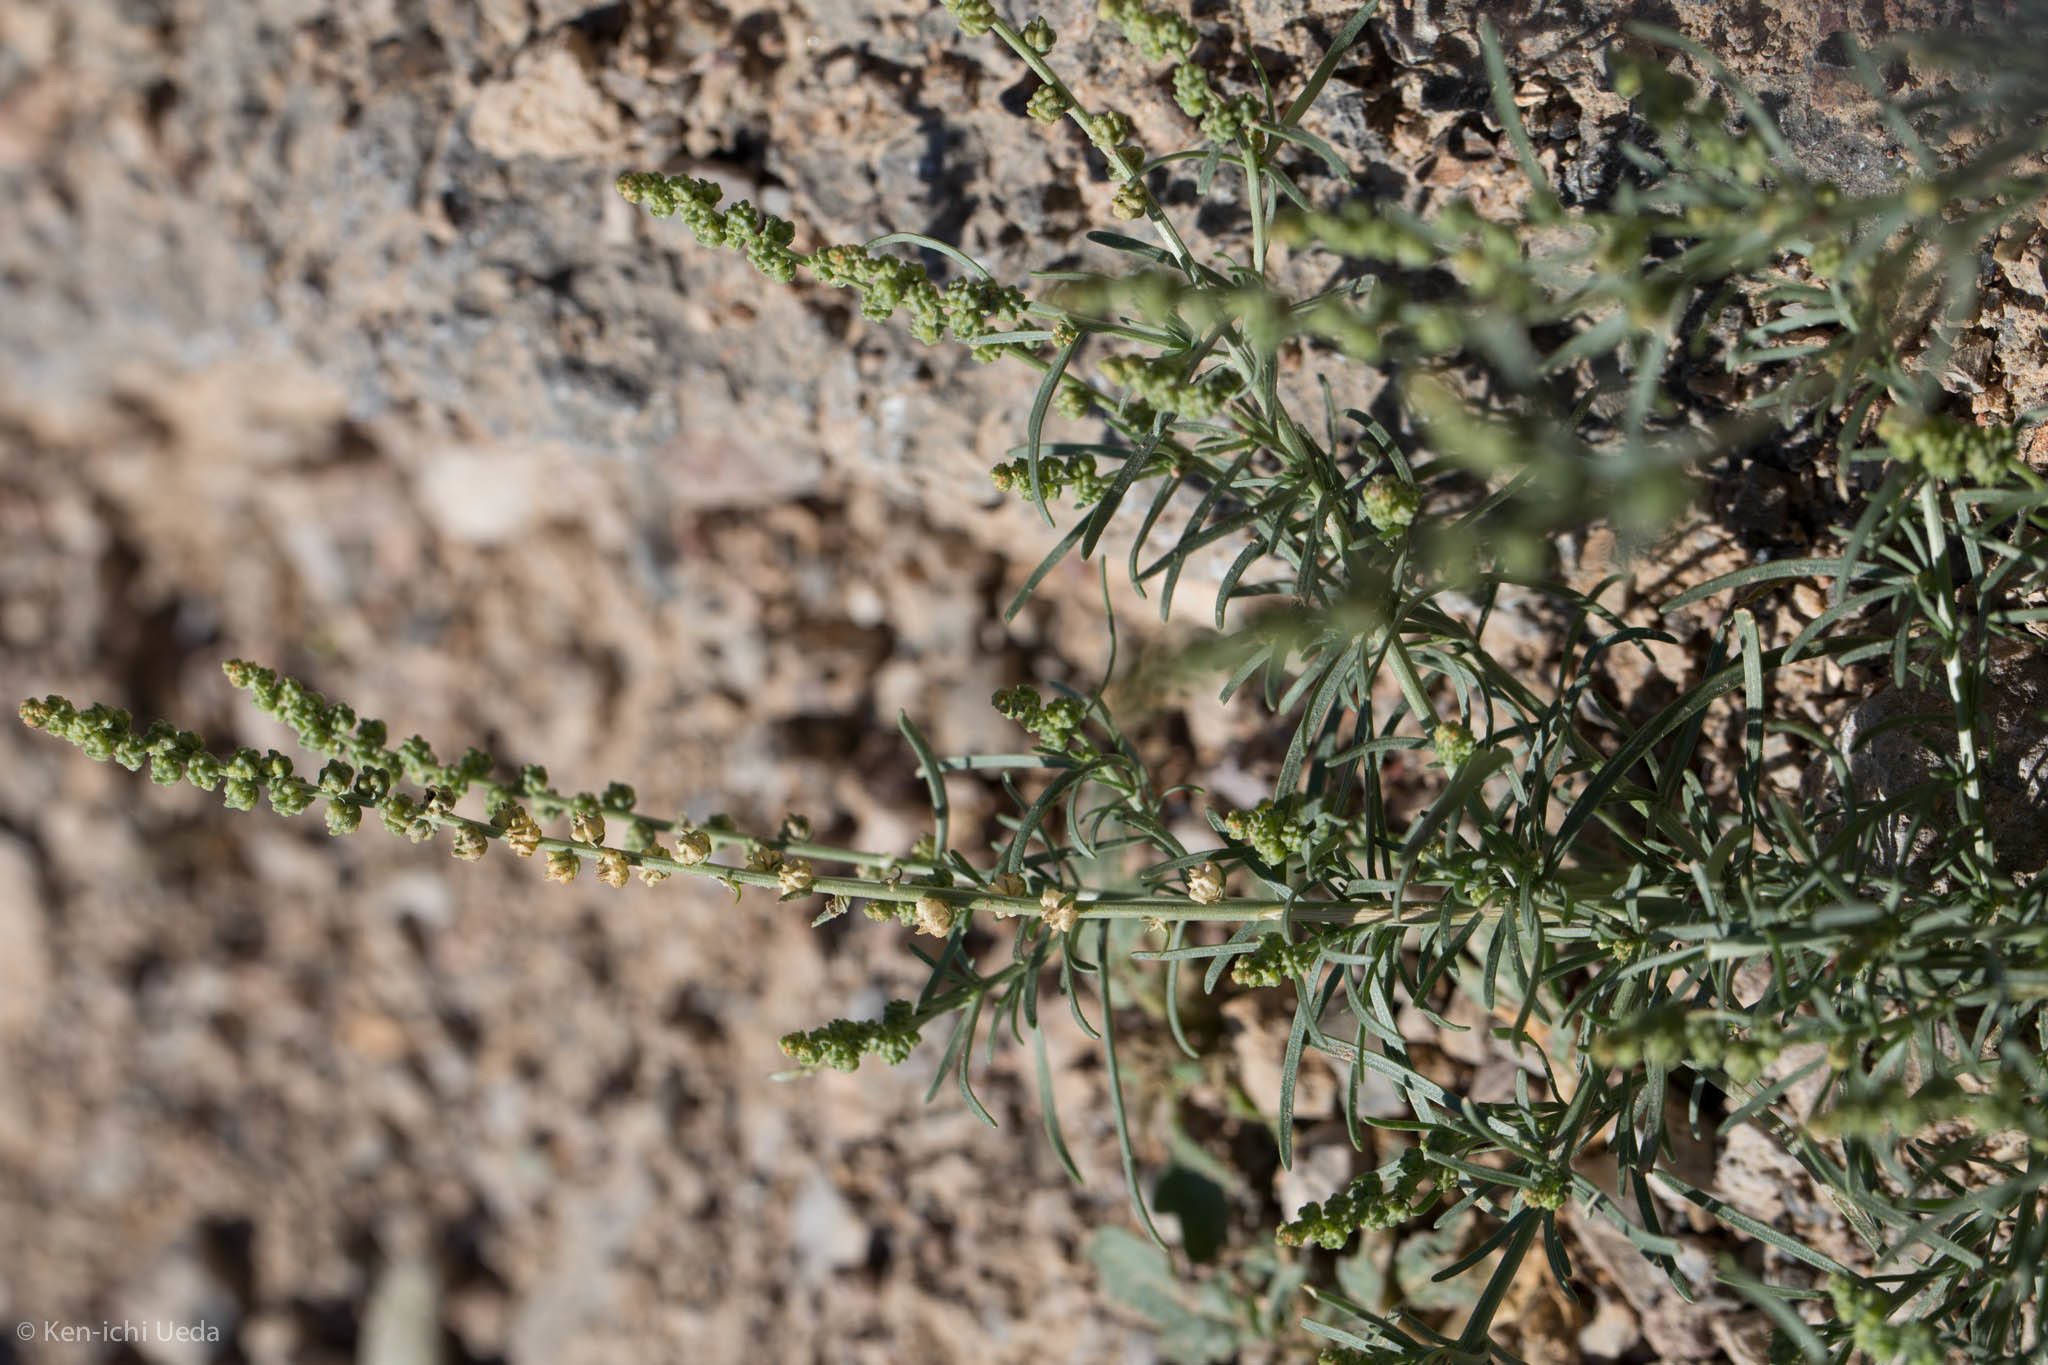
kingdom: Plantae
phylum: Tracheophyta
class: Magnoliopsida
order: Brassicales
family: Resedaceae
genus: Oligomeris
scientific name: Oligomeris linifolia
